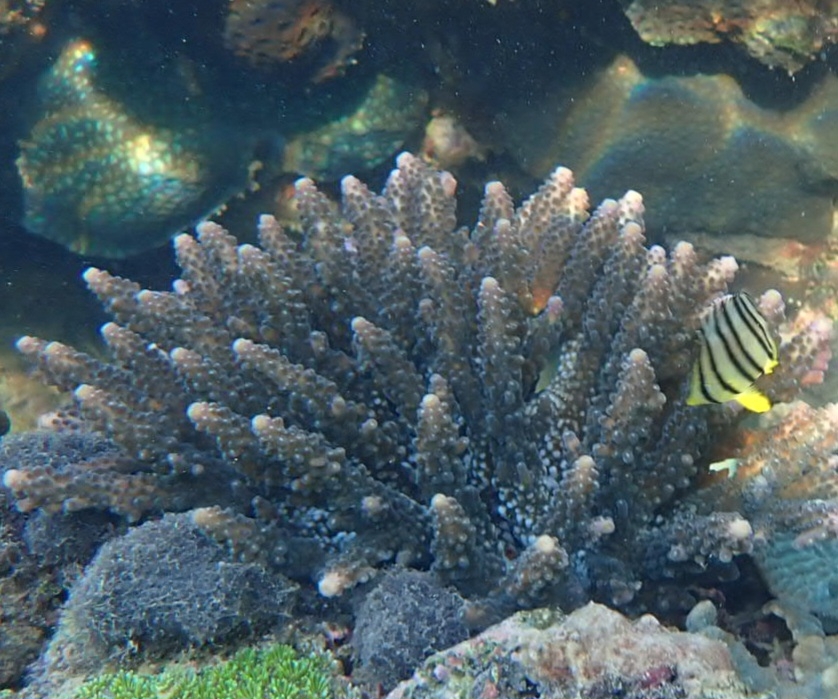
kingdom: Animalia
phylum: Chordata
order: Perciformes
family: Chaetodontidae
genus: Chaetodon
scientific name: Chaetodon octofasciatus
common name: Eightband butterflyfish
